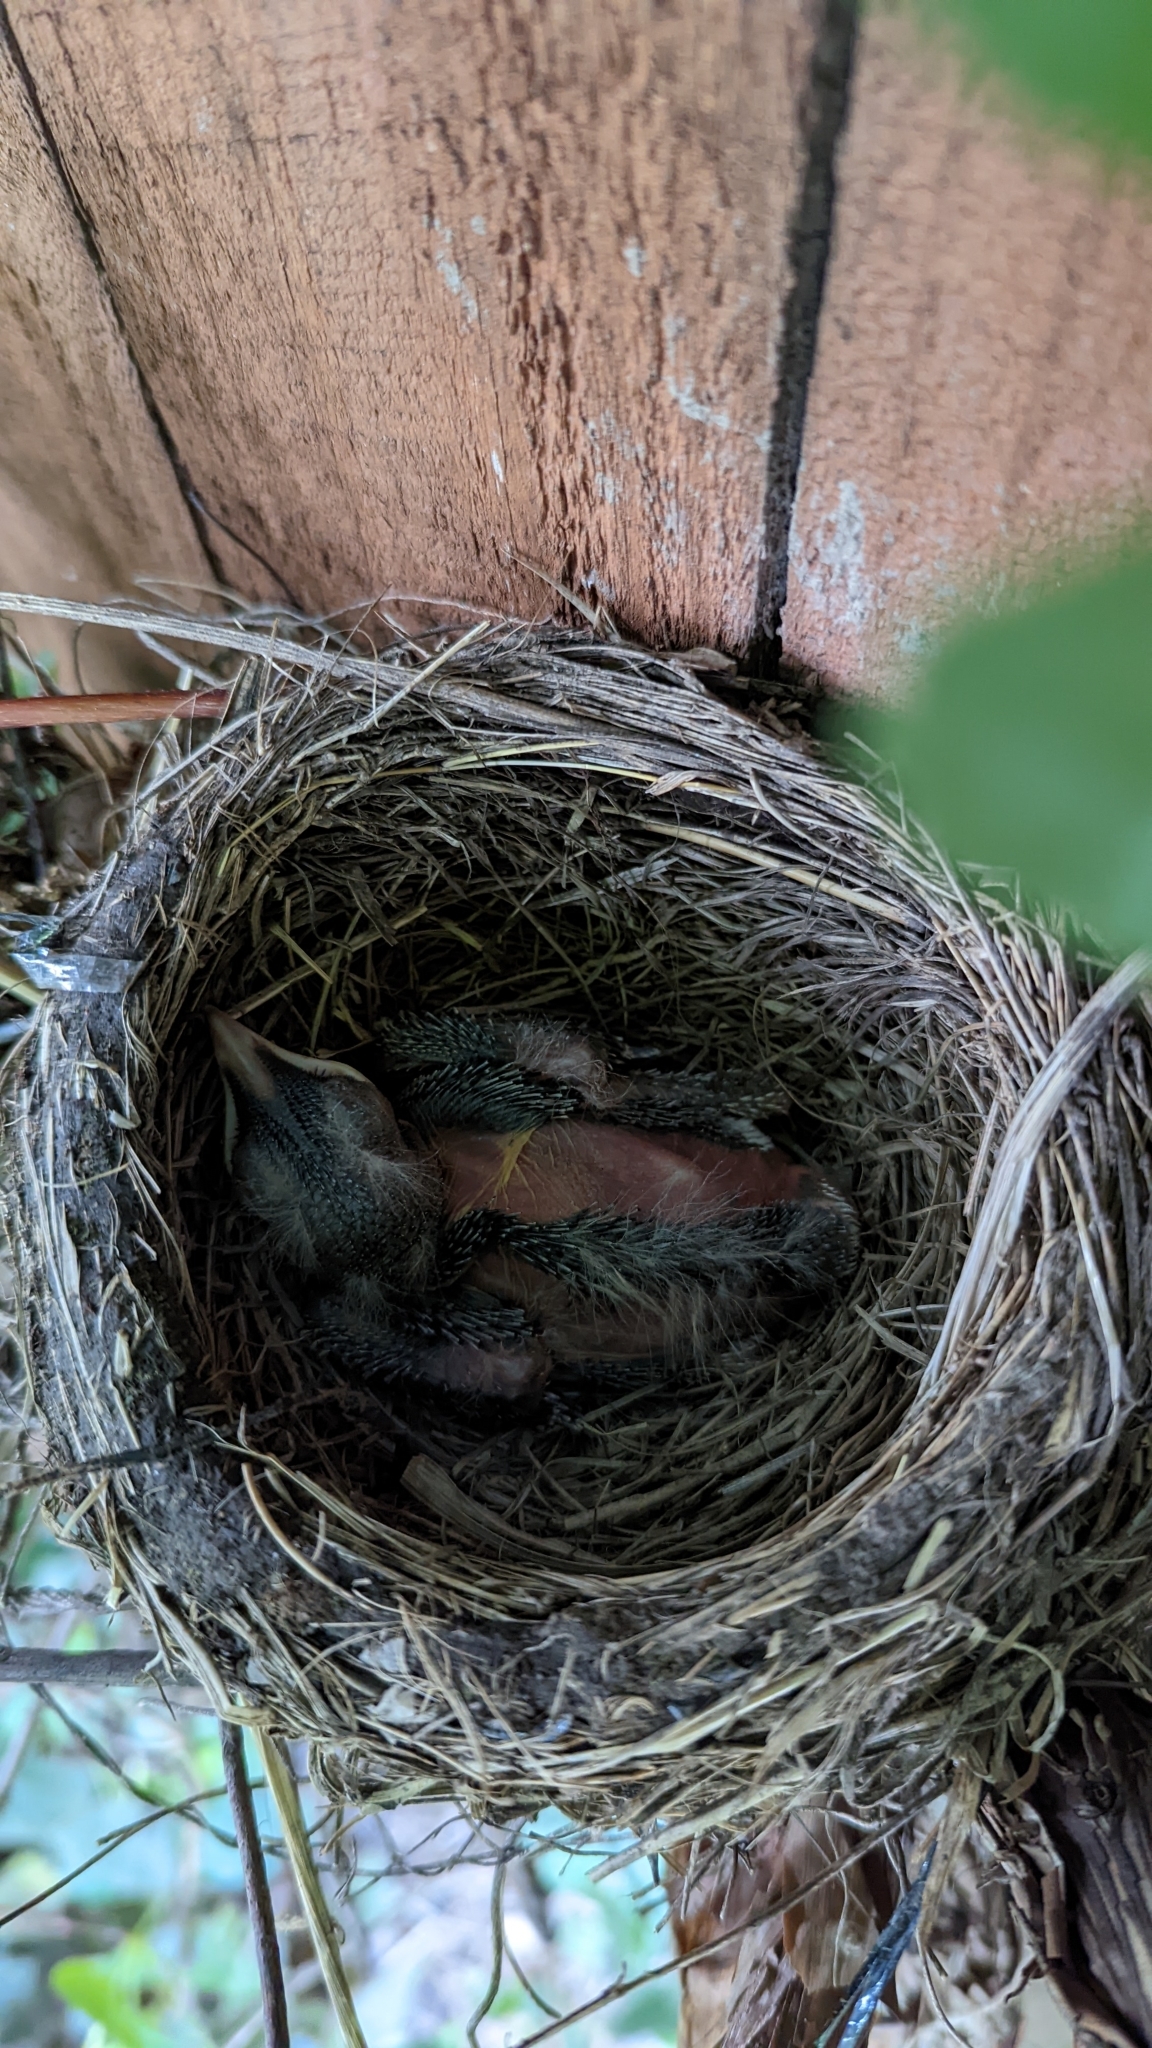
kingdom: Animalia
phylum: Chordata
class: Aves
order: Passeriformes
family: Turdidae
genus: Turdus
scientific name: Turdus migratorius
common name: American robin
